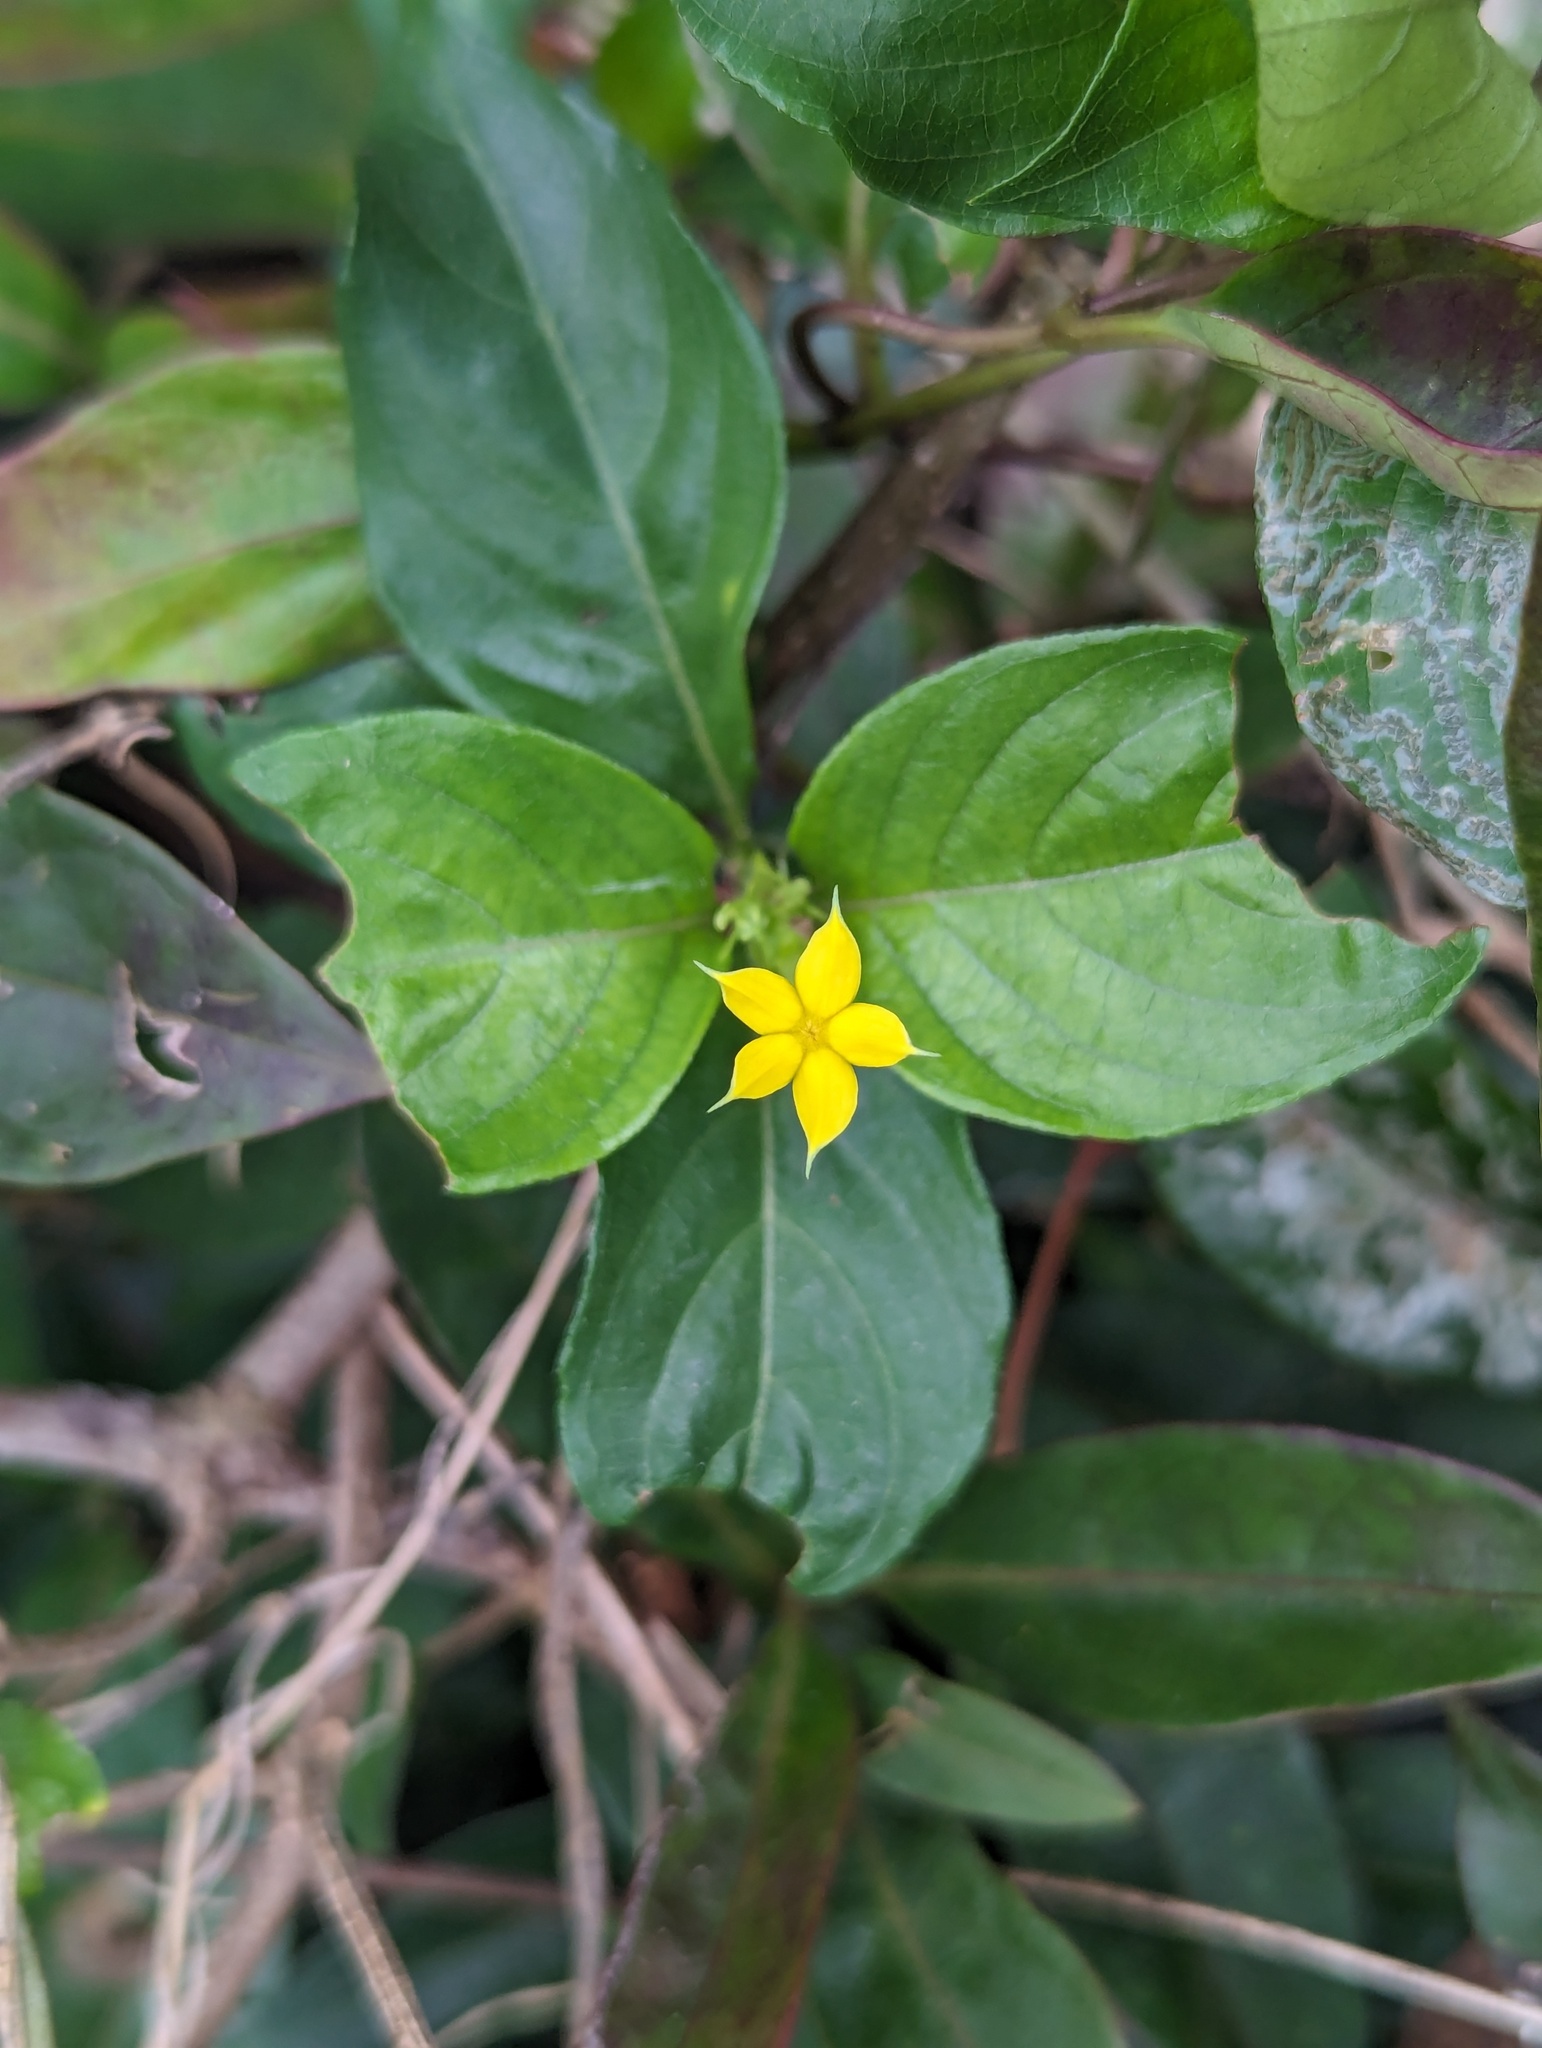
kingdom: Plantae
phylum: Tracheophyta
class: Magnoliopsida
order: Gentianales
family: Rubiaceae
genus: Mussaenda
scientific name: Mussaenda formosana
